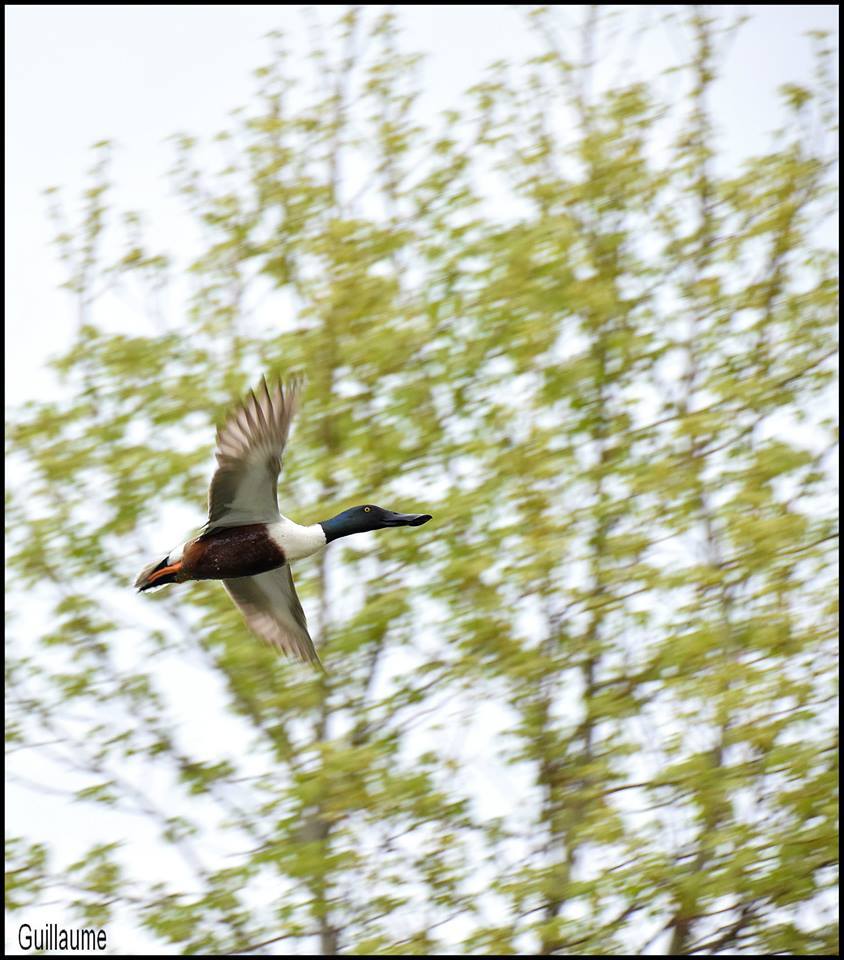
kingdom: Animalia
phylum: Chordata
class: Aves
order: Anseriformes
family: Anatidae
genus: Spatula
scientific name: Spatula clypeata
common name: Northern shoveler
